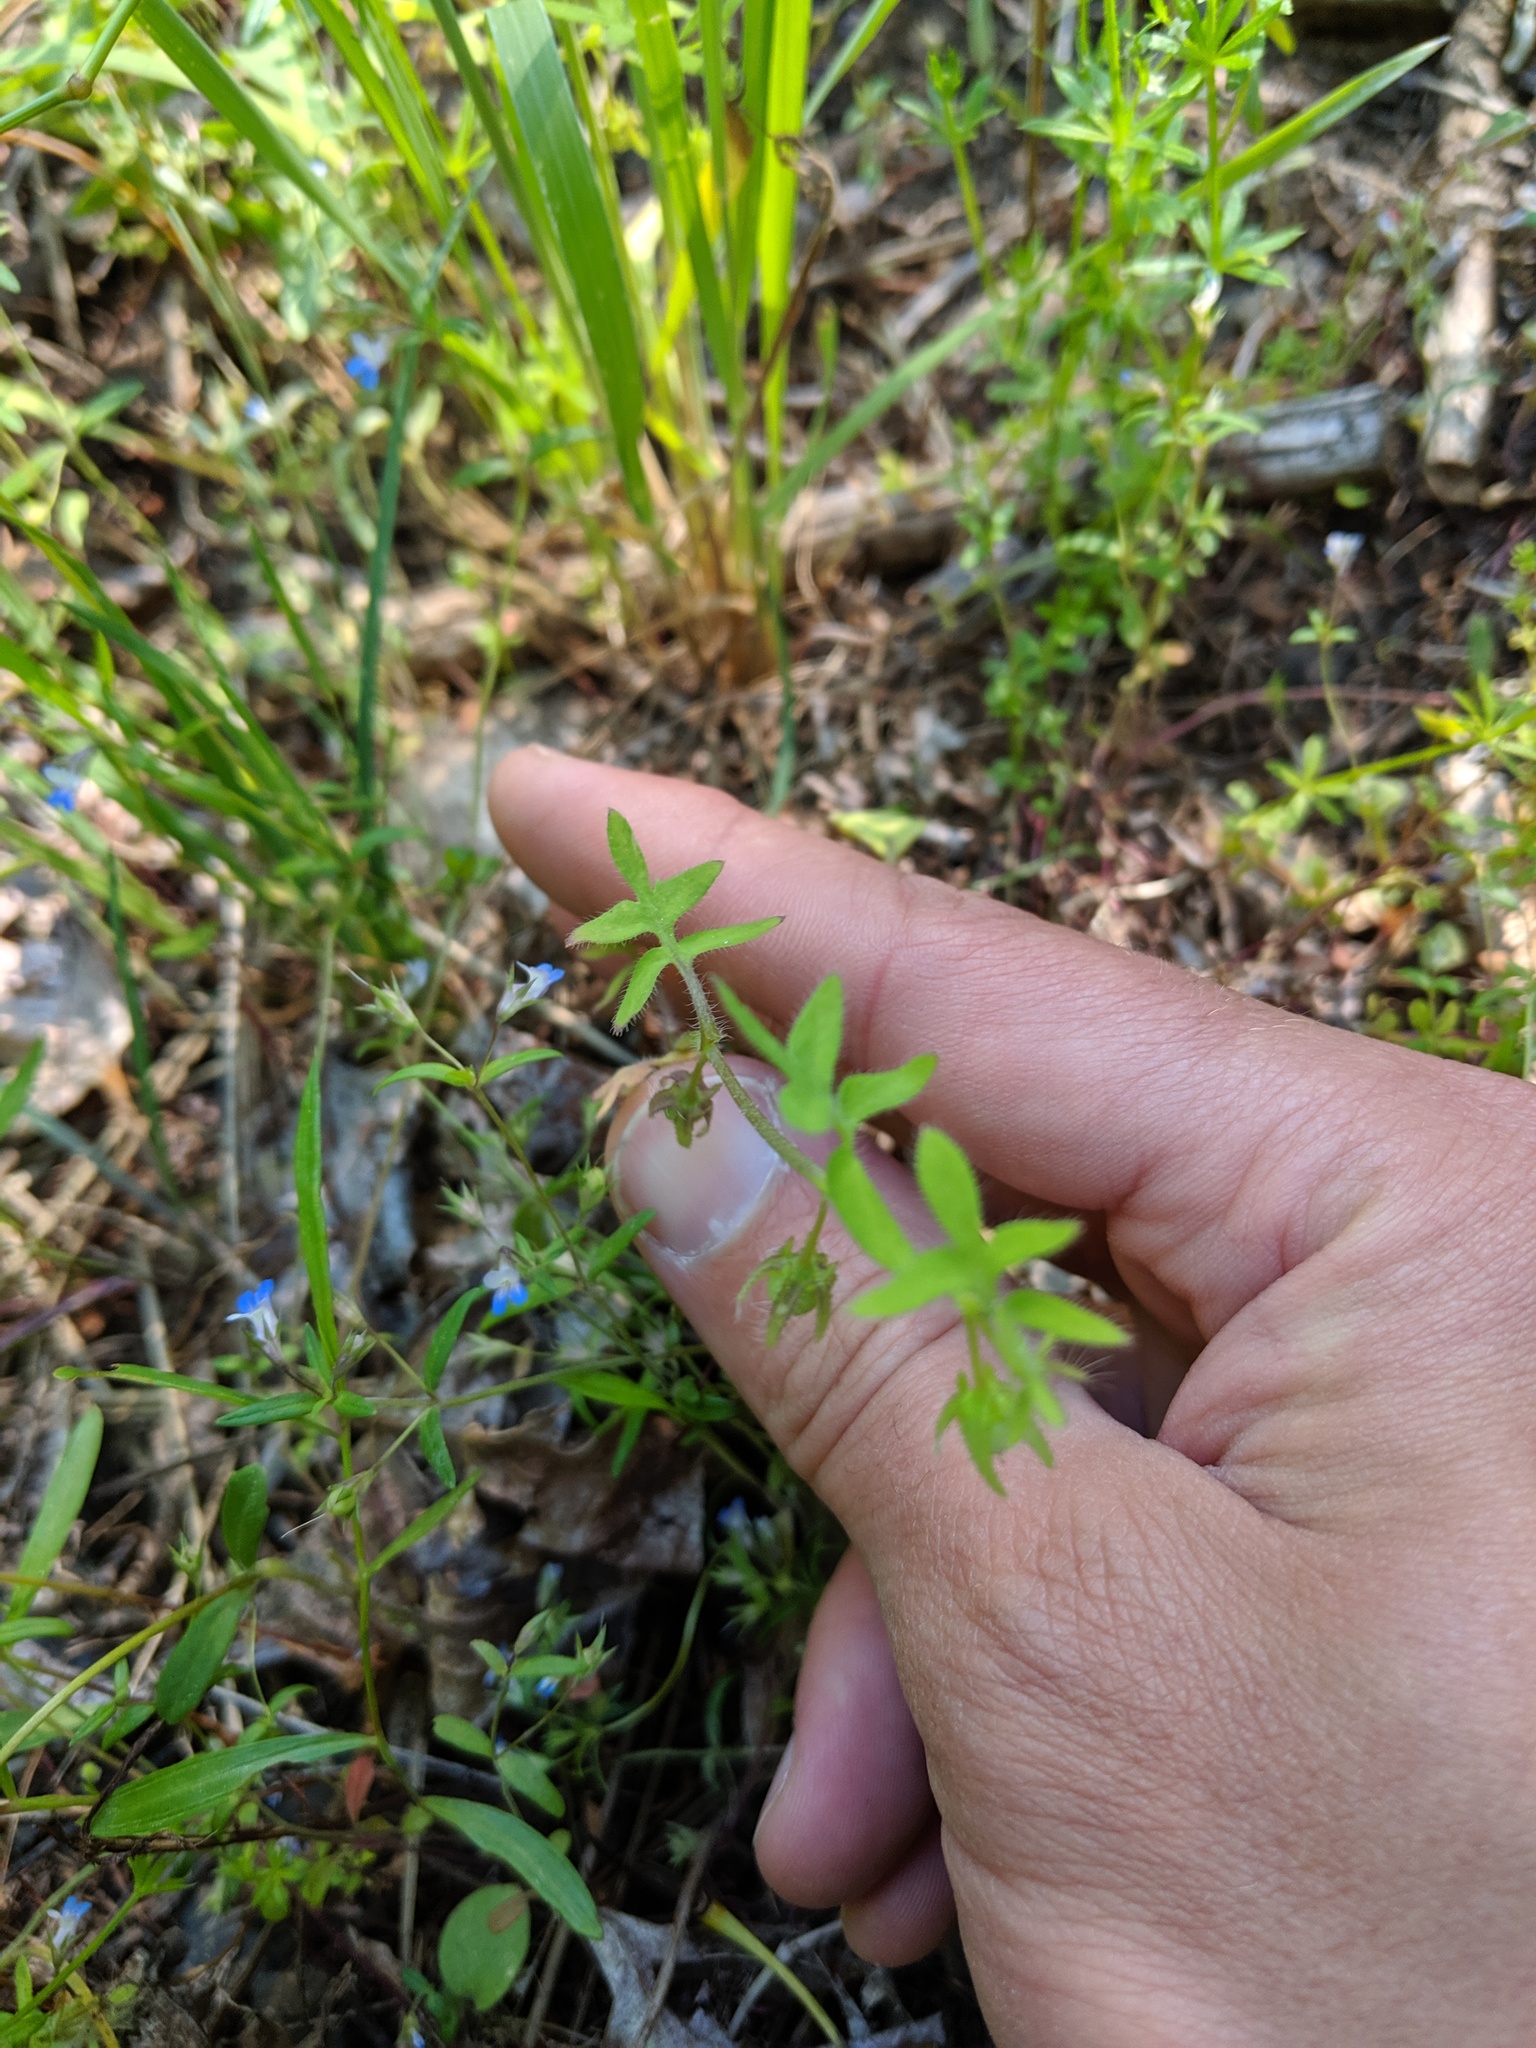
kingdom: Plantae
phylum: Tracheophyta
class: Magnoliopsida
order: Boraginales
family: Hydrophyllaceae
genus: Nemophila
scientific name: Nemophila breviflora
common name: Great basin baby-blue-eyes
